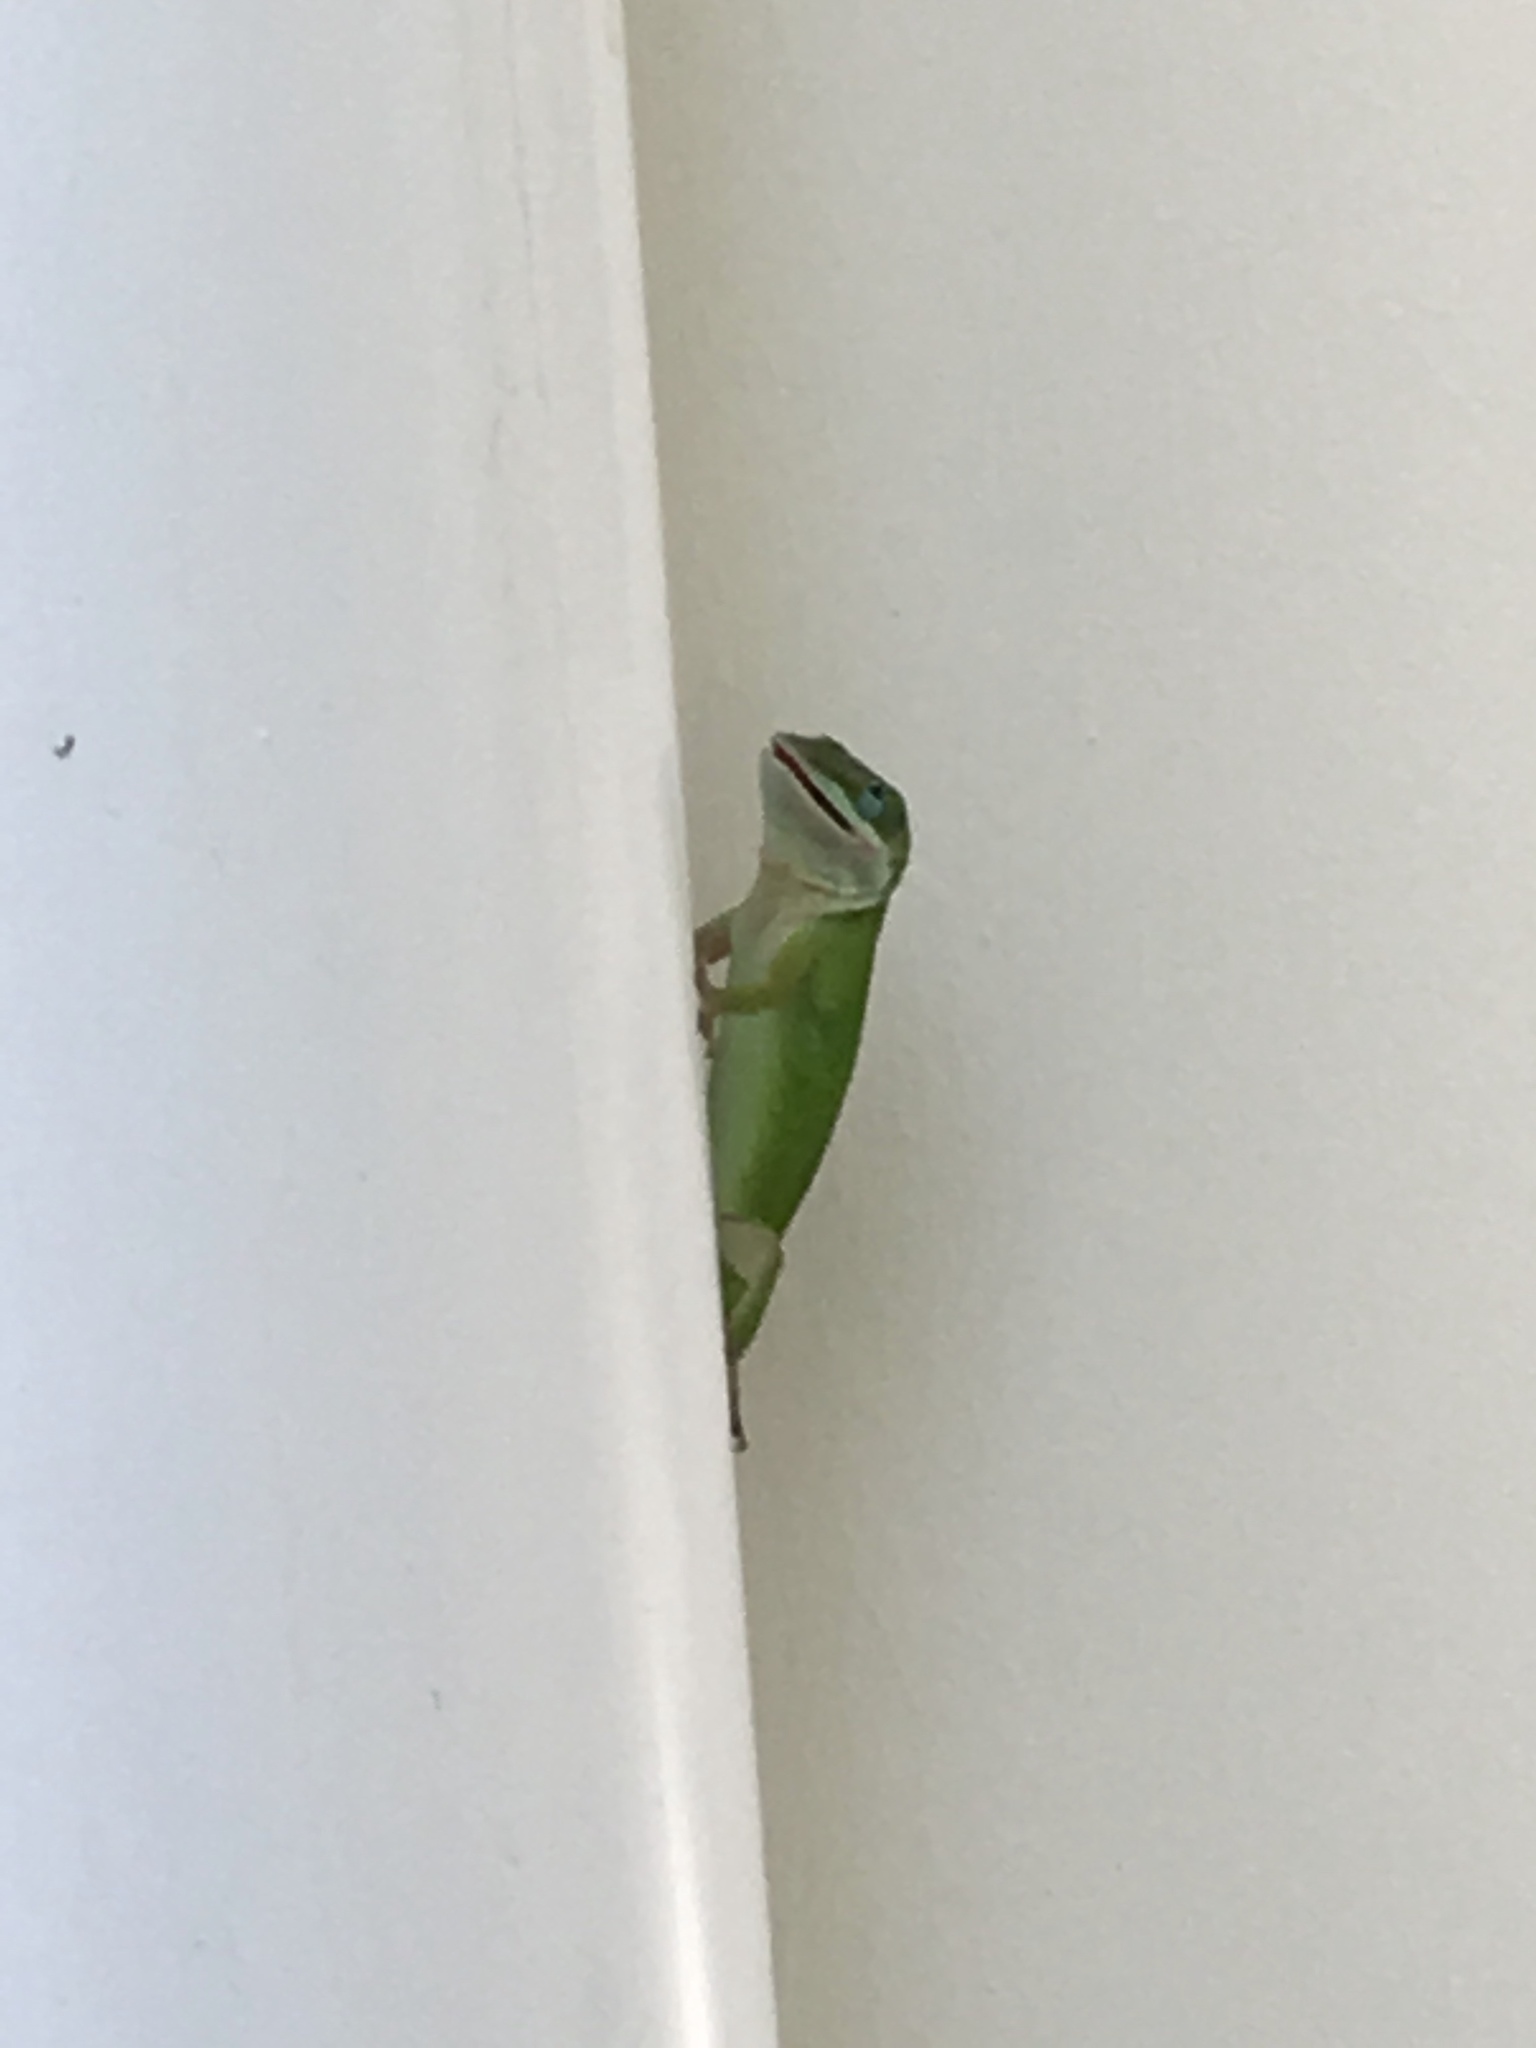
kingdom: Animalia
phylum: Chordata
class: Squamata
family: Dactyloidae
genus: Anolis
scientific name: Anolis carolinensis
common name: Green anole
